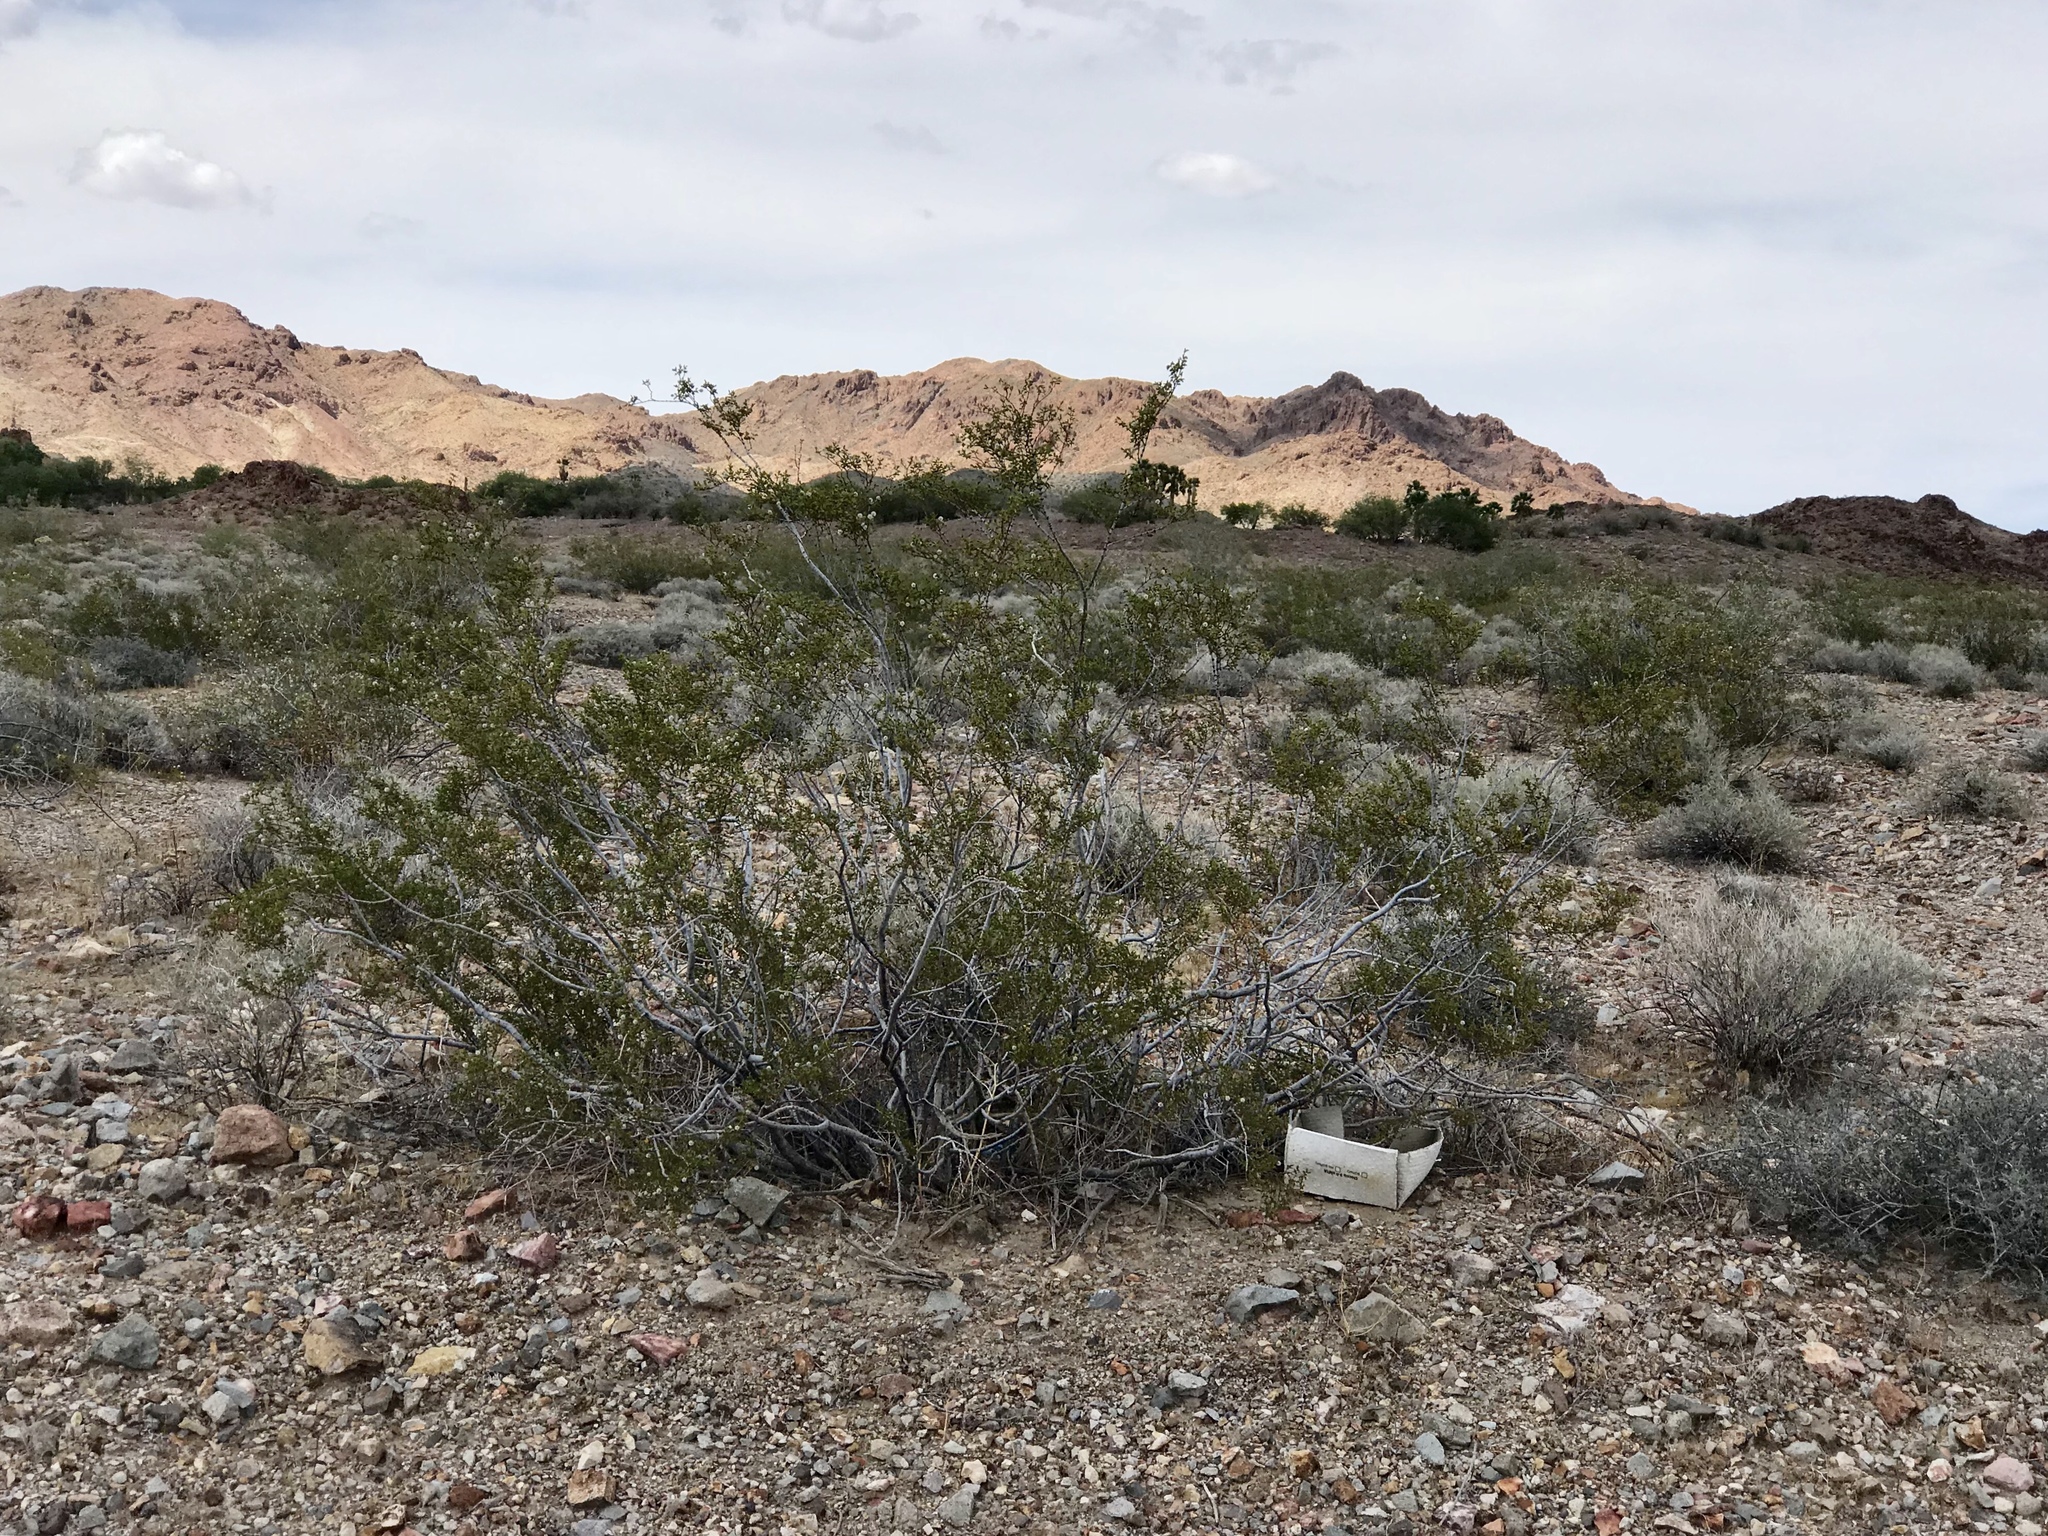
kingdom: Plantae
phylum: Tracheophyta
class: Magnoliopsida
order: Zygophyllales
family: Zygophyllaceae
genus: Larrea
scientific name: Larrea tridentata
